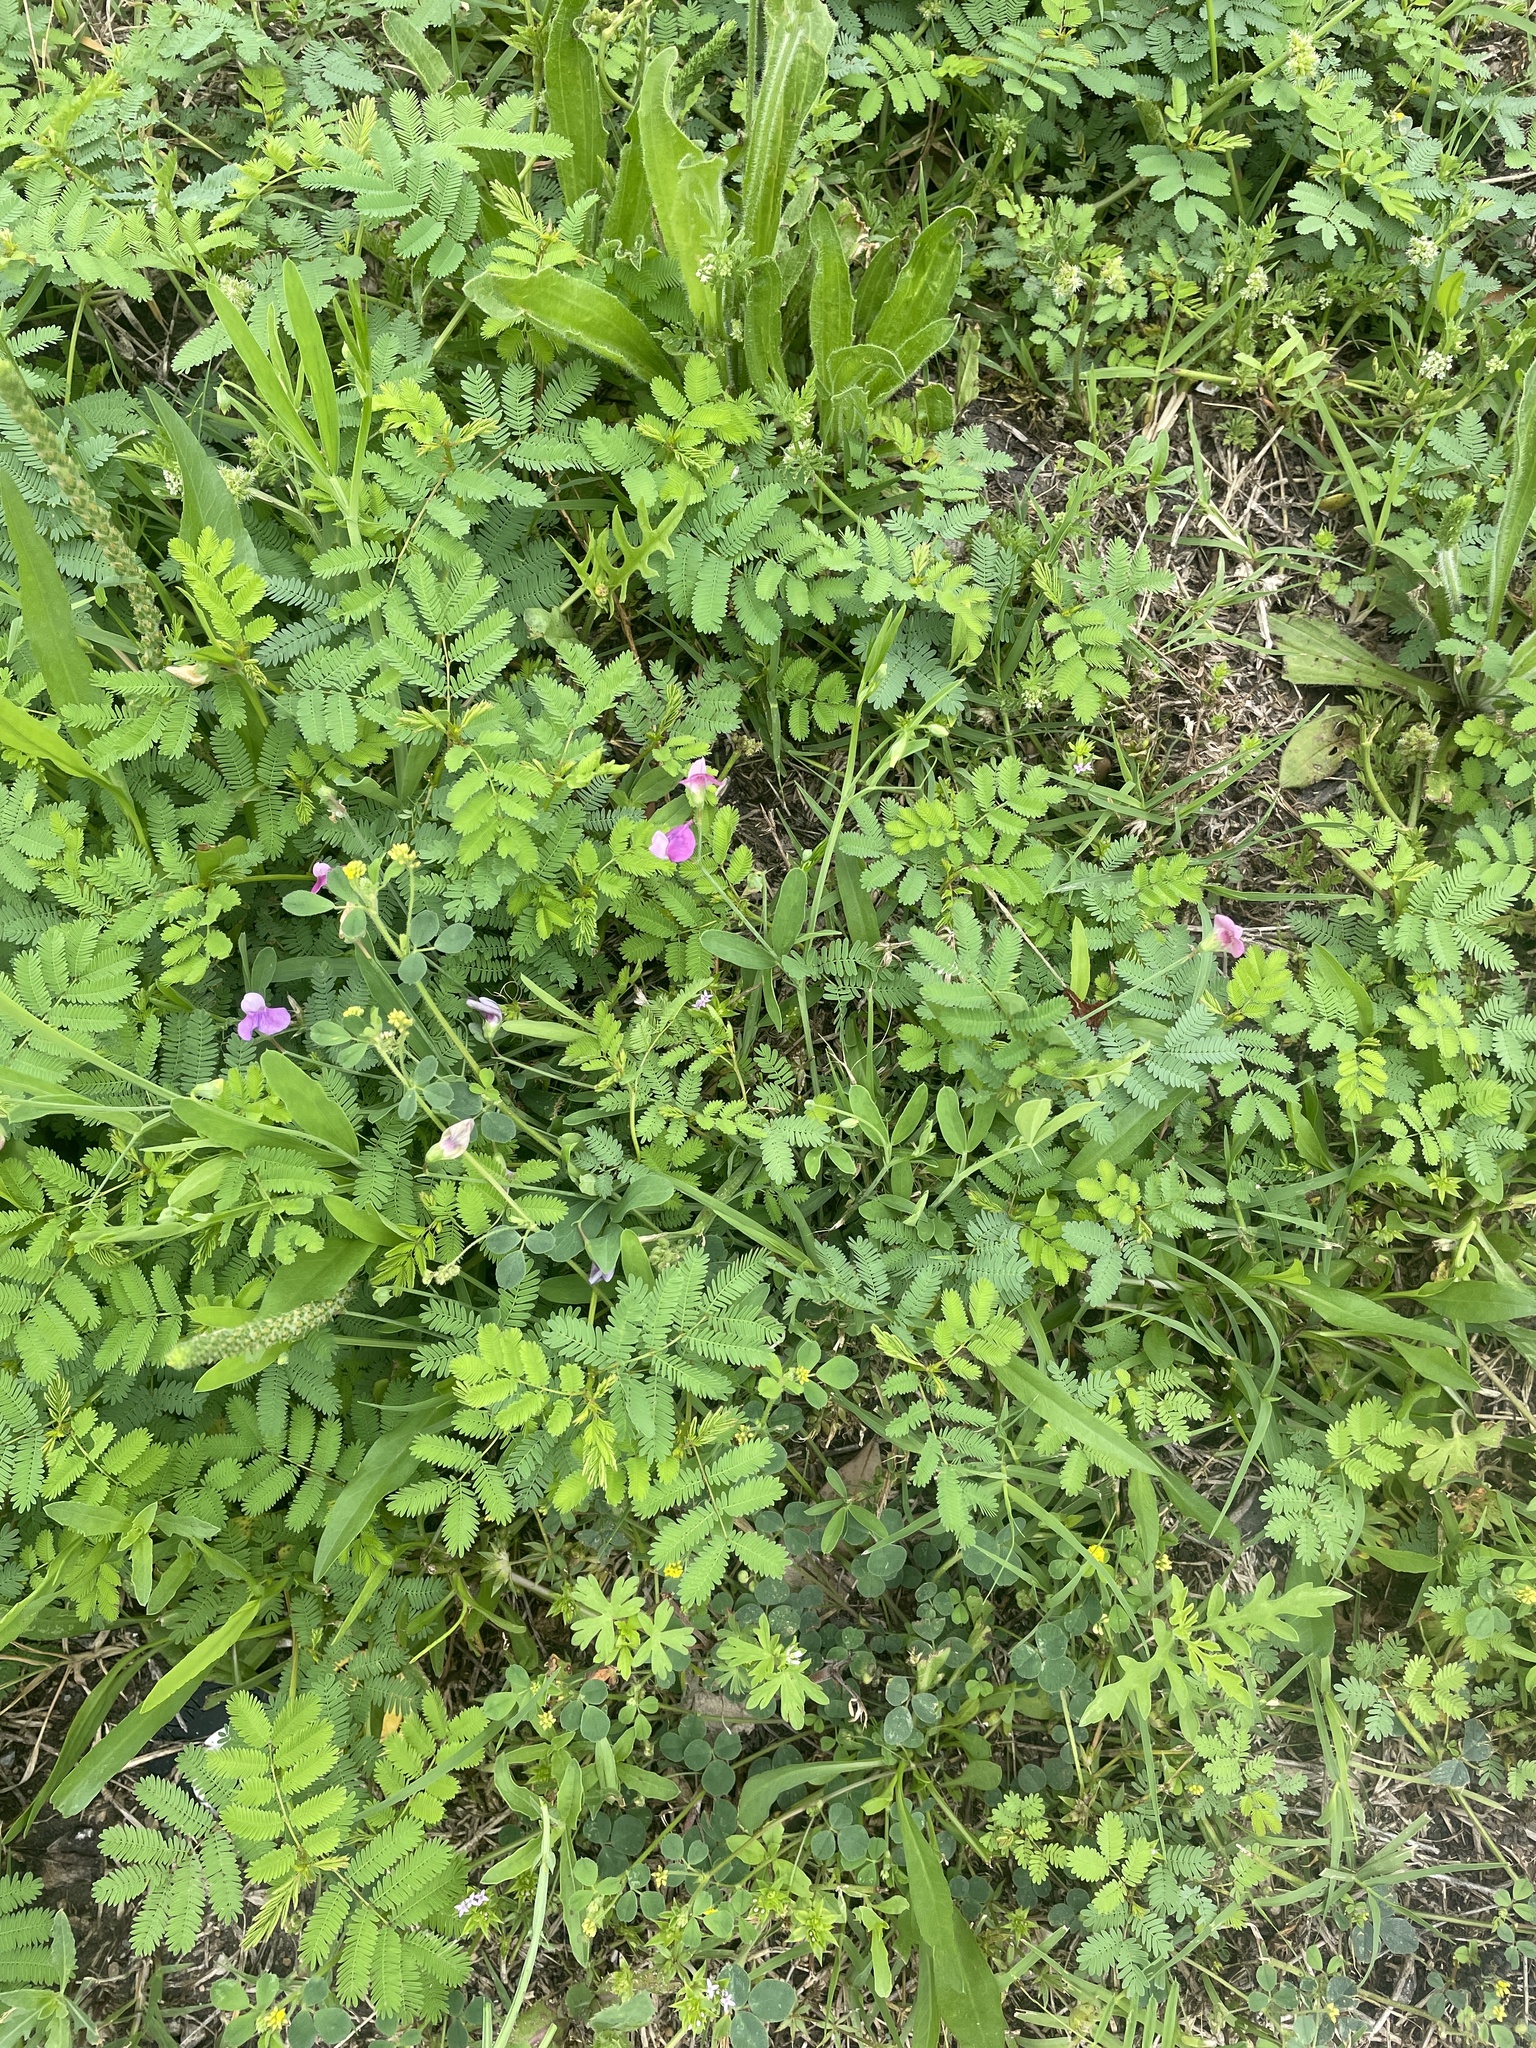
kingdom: Plantae
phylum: Tracheophyta
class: Magnoliopsida
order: Fabales
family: Fabaceae
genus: Lathyrus
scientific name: Lathyrus hirsutus
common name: Hairy vetchling
